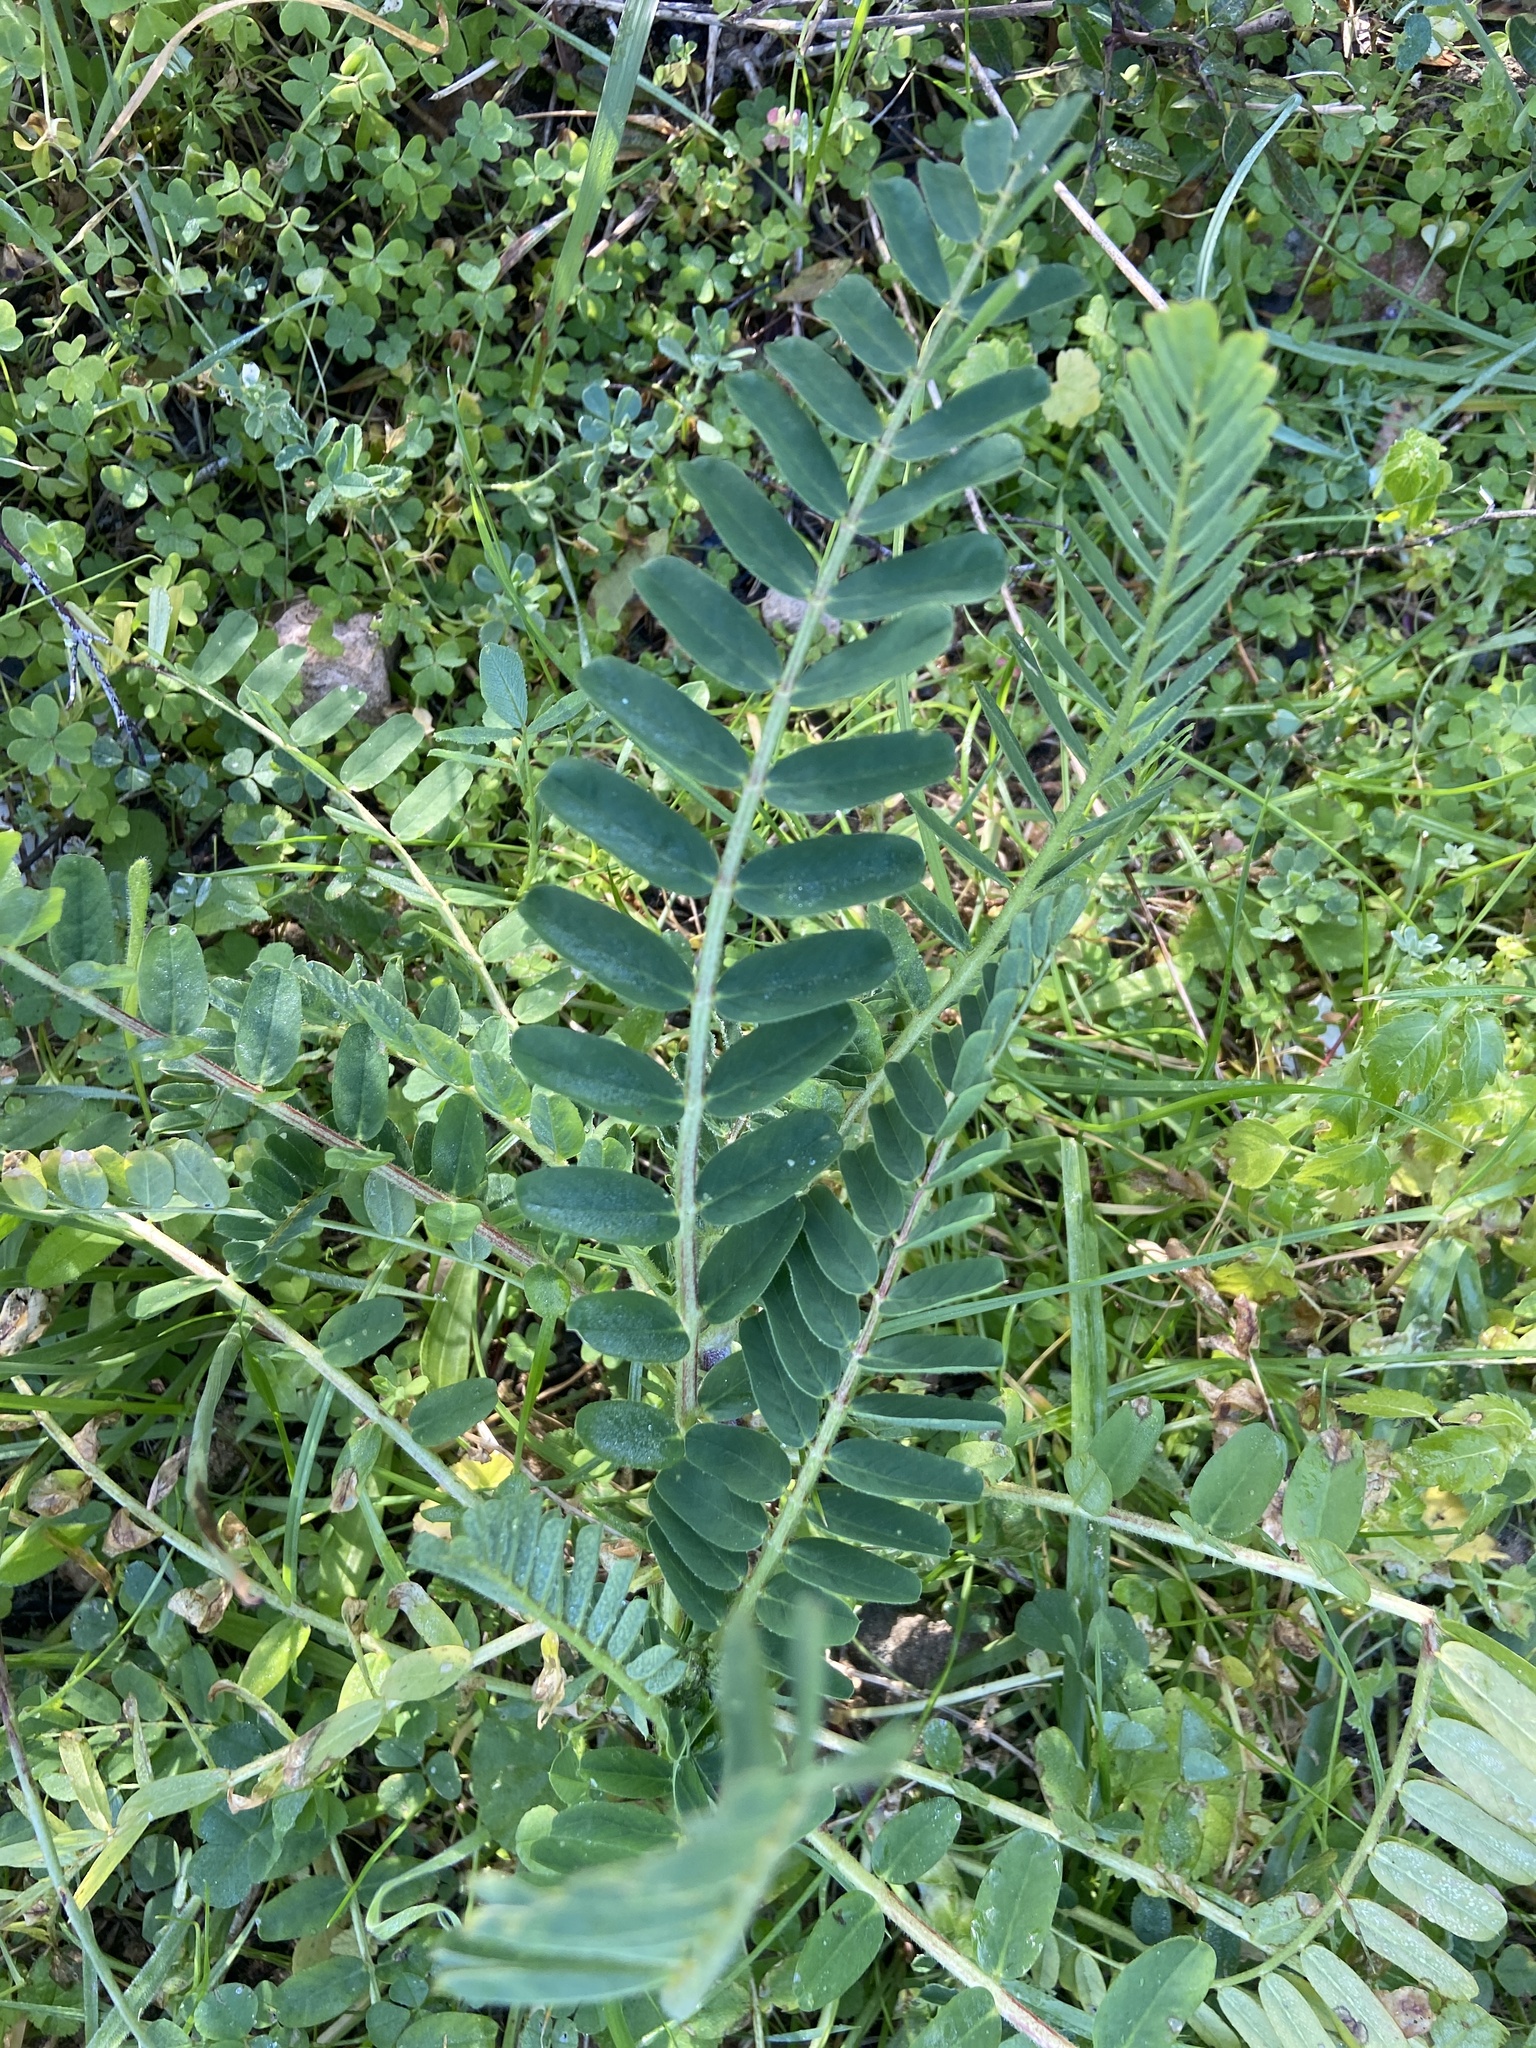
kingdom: Plantae
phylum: Tracheophyta
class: Magnoliopsida
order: Fabales
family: Fabaceae
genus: Astragalus
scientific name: Astragalus boeticus
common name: Milk-vetch
